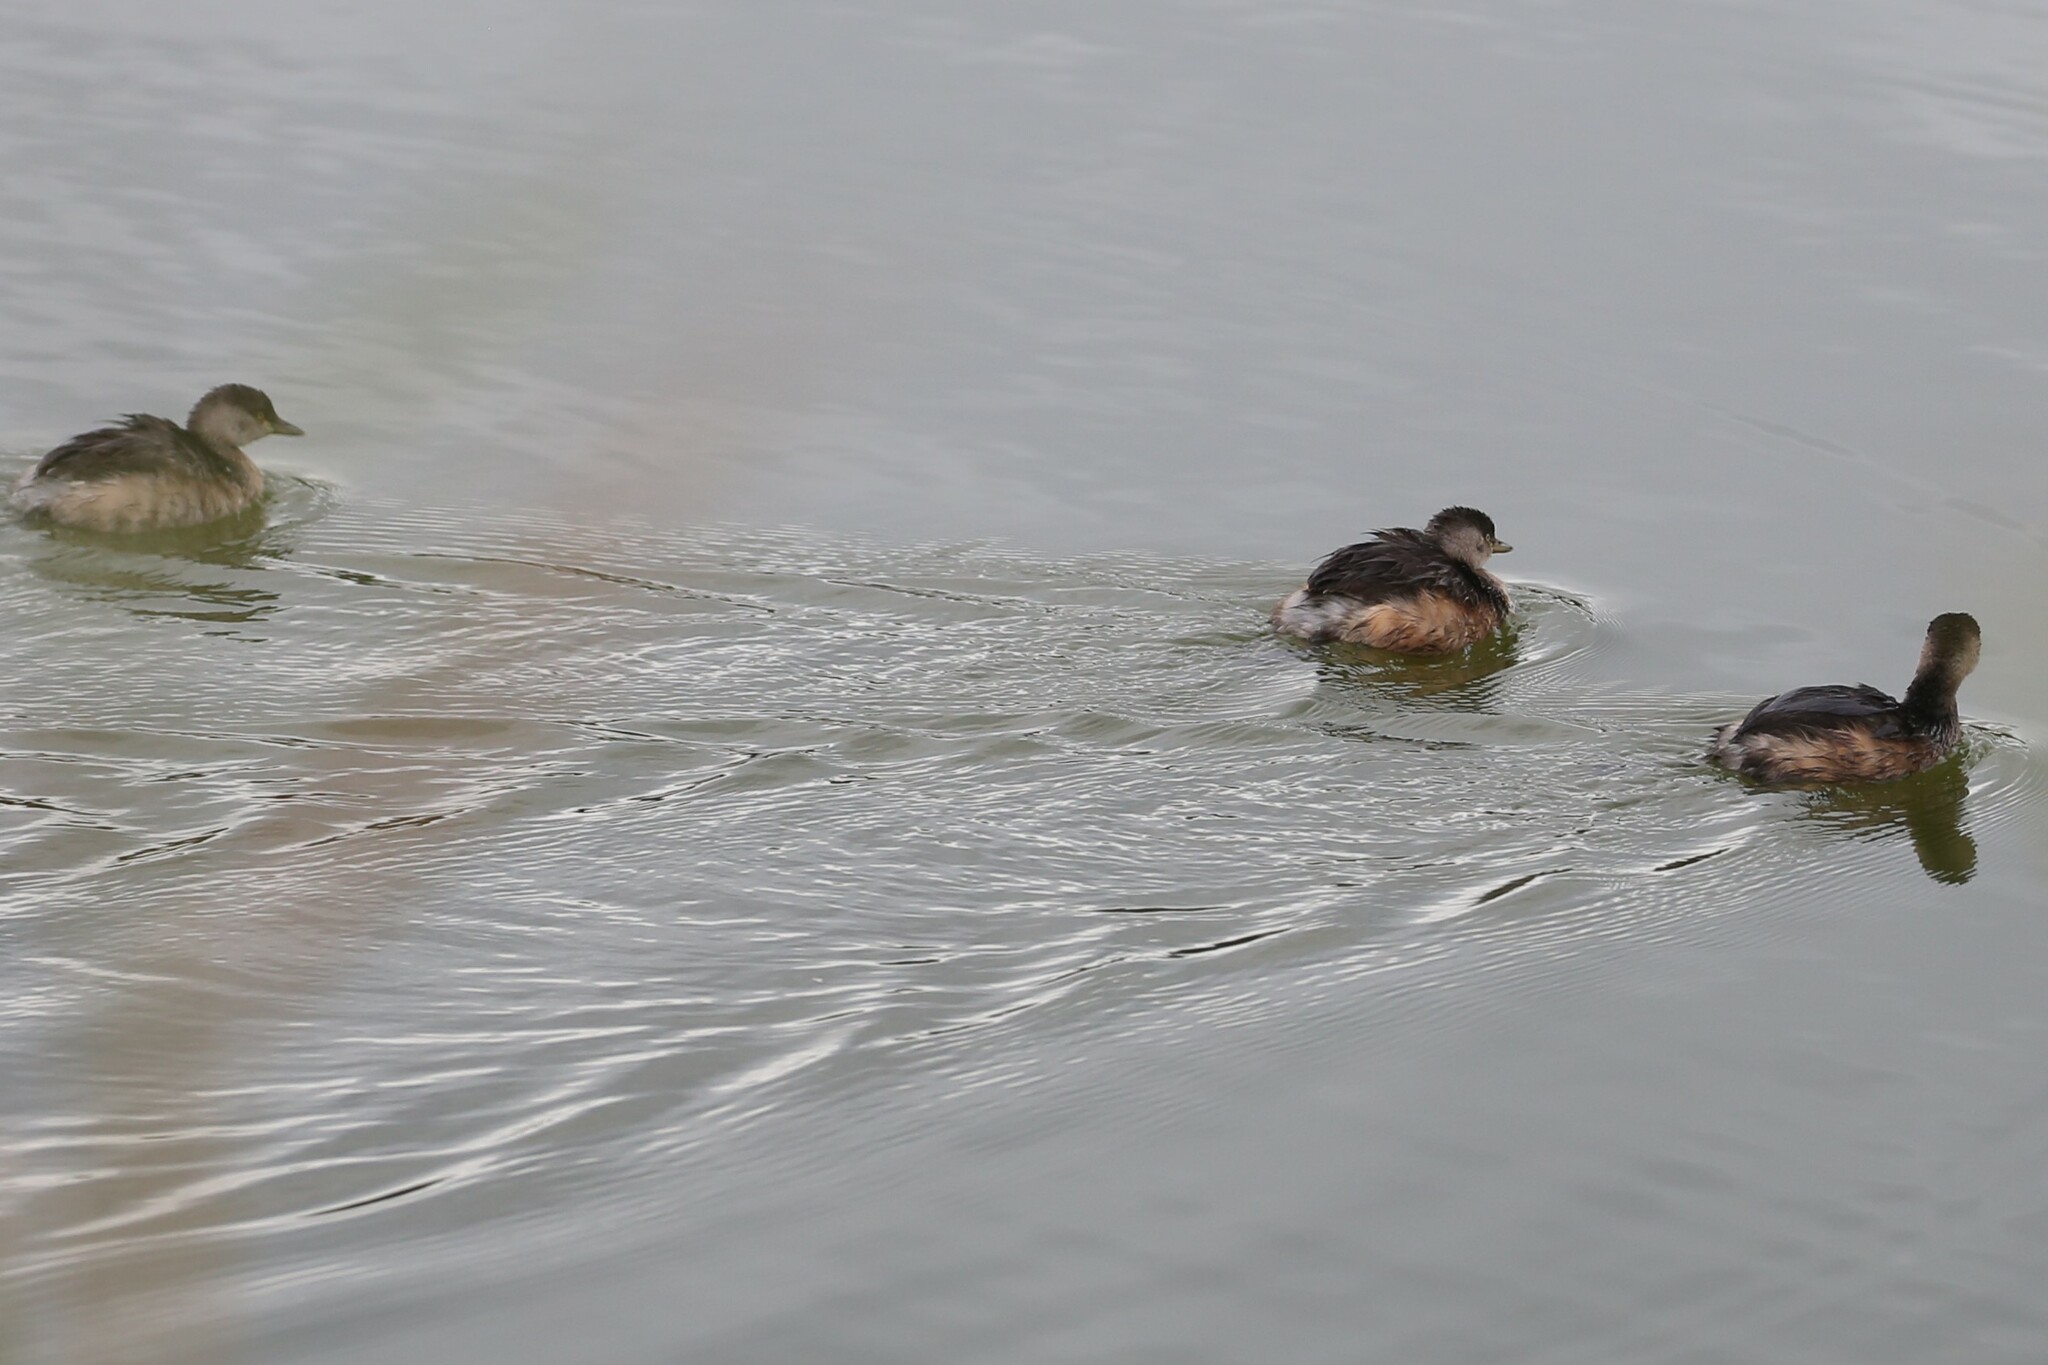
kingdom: Animalia
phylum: Chordata
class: Aves
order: Podicipediformes
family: Podicipedidae
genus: Tachybaptus
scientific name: Tachybaptus novaehollandiae
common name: Australasian grebe
